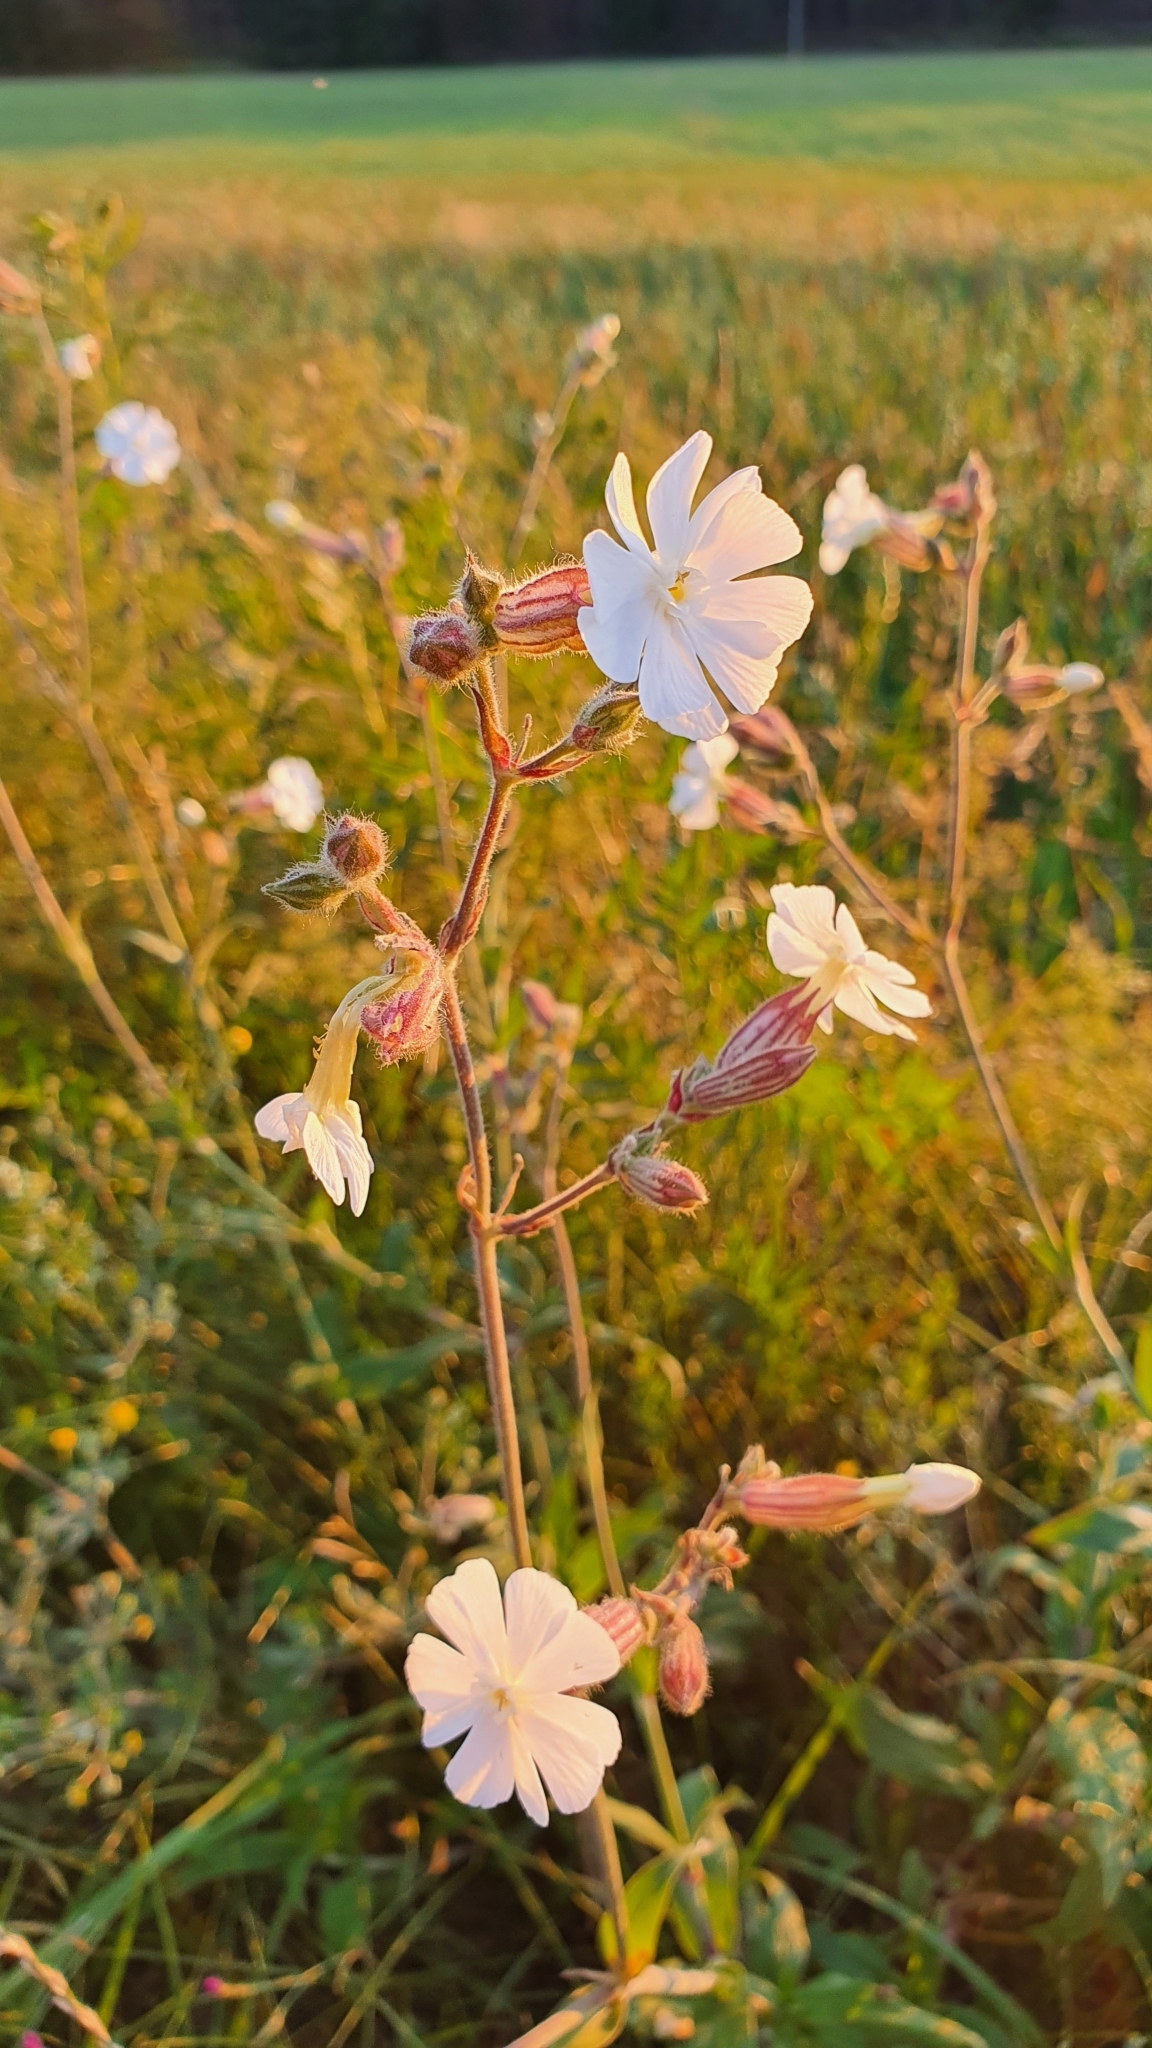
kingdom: Plantae
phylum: Tracheophyta
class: Magnoliopsida
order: Caryophyllales
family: Caryophyllaceae
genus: Silene
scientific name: Silene latifolia
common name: White campion
